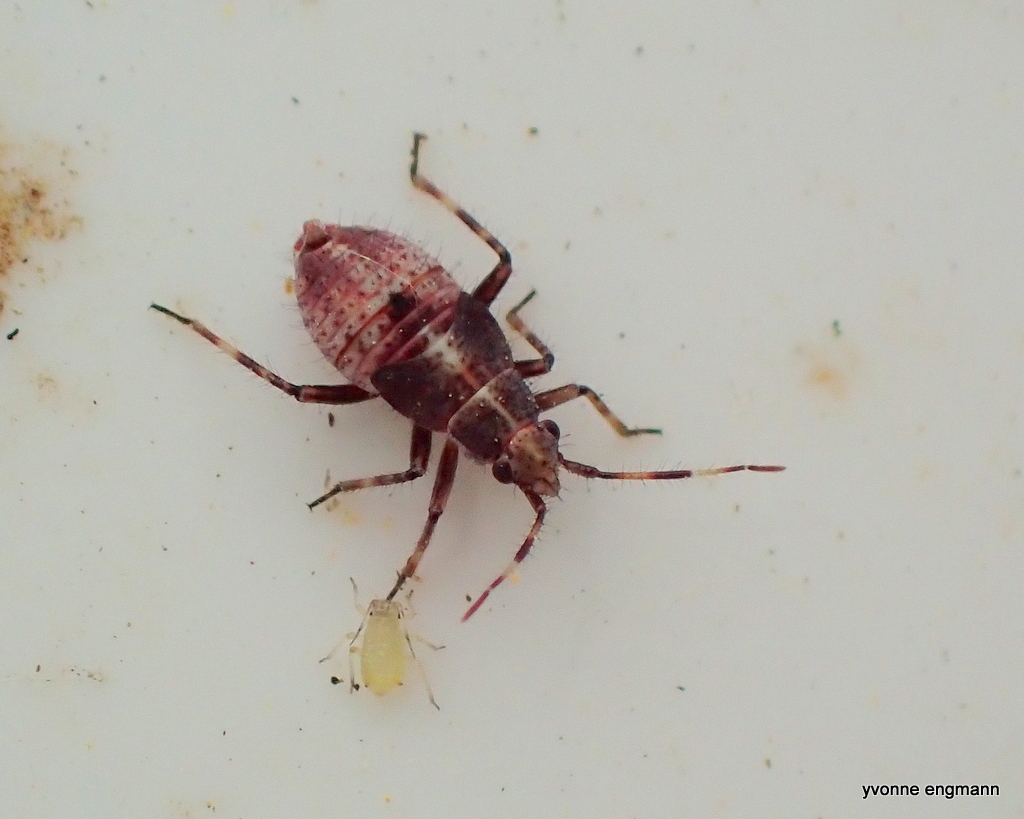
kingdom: Animalia
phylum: Arthropoda
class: Insecta
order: Hemiptera
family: Miridae
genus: Deraeocoris
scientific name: Deraeocoris flavilinea
